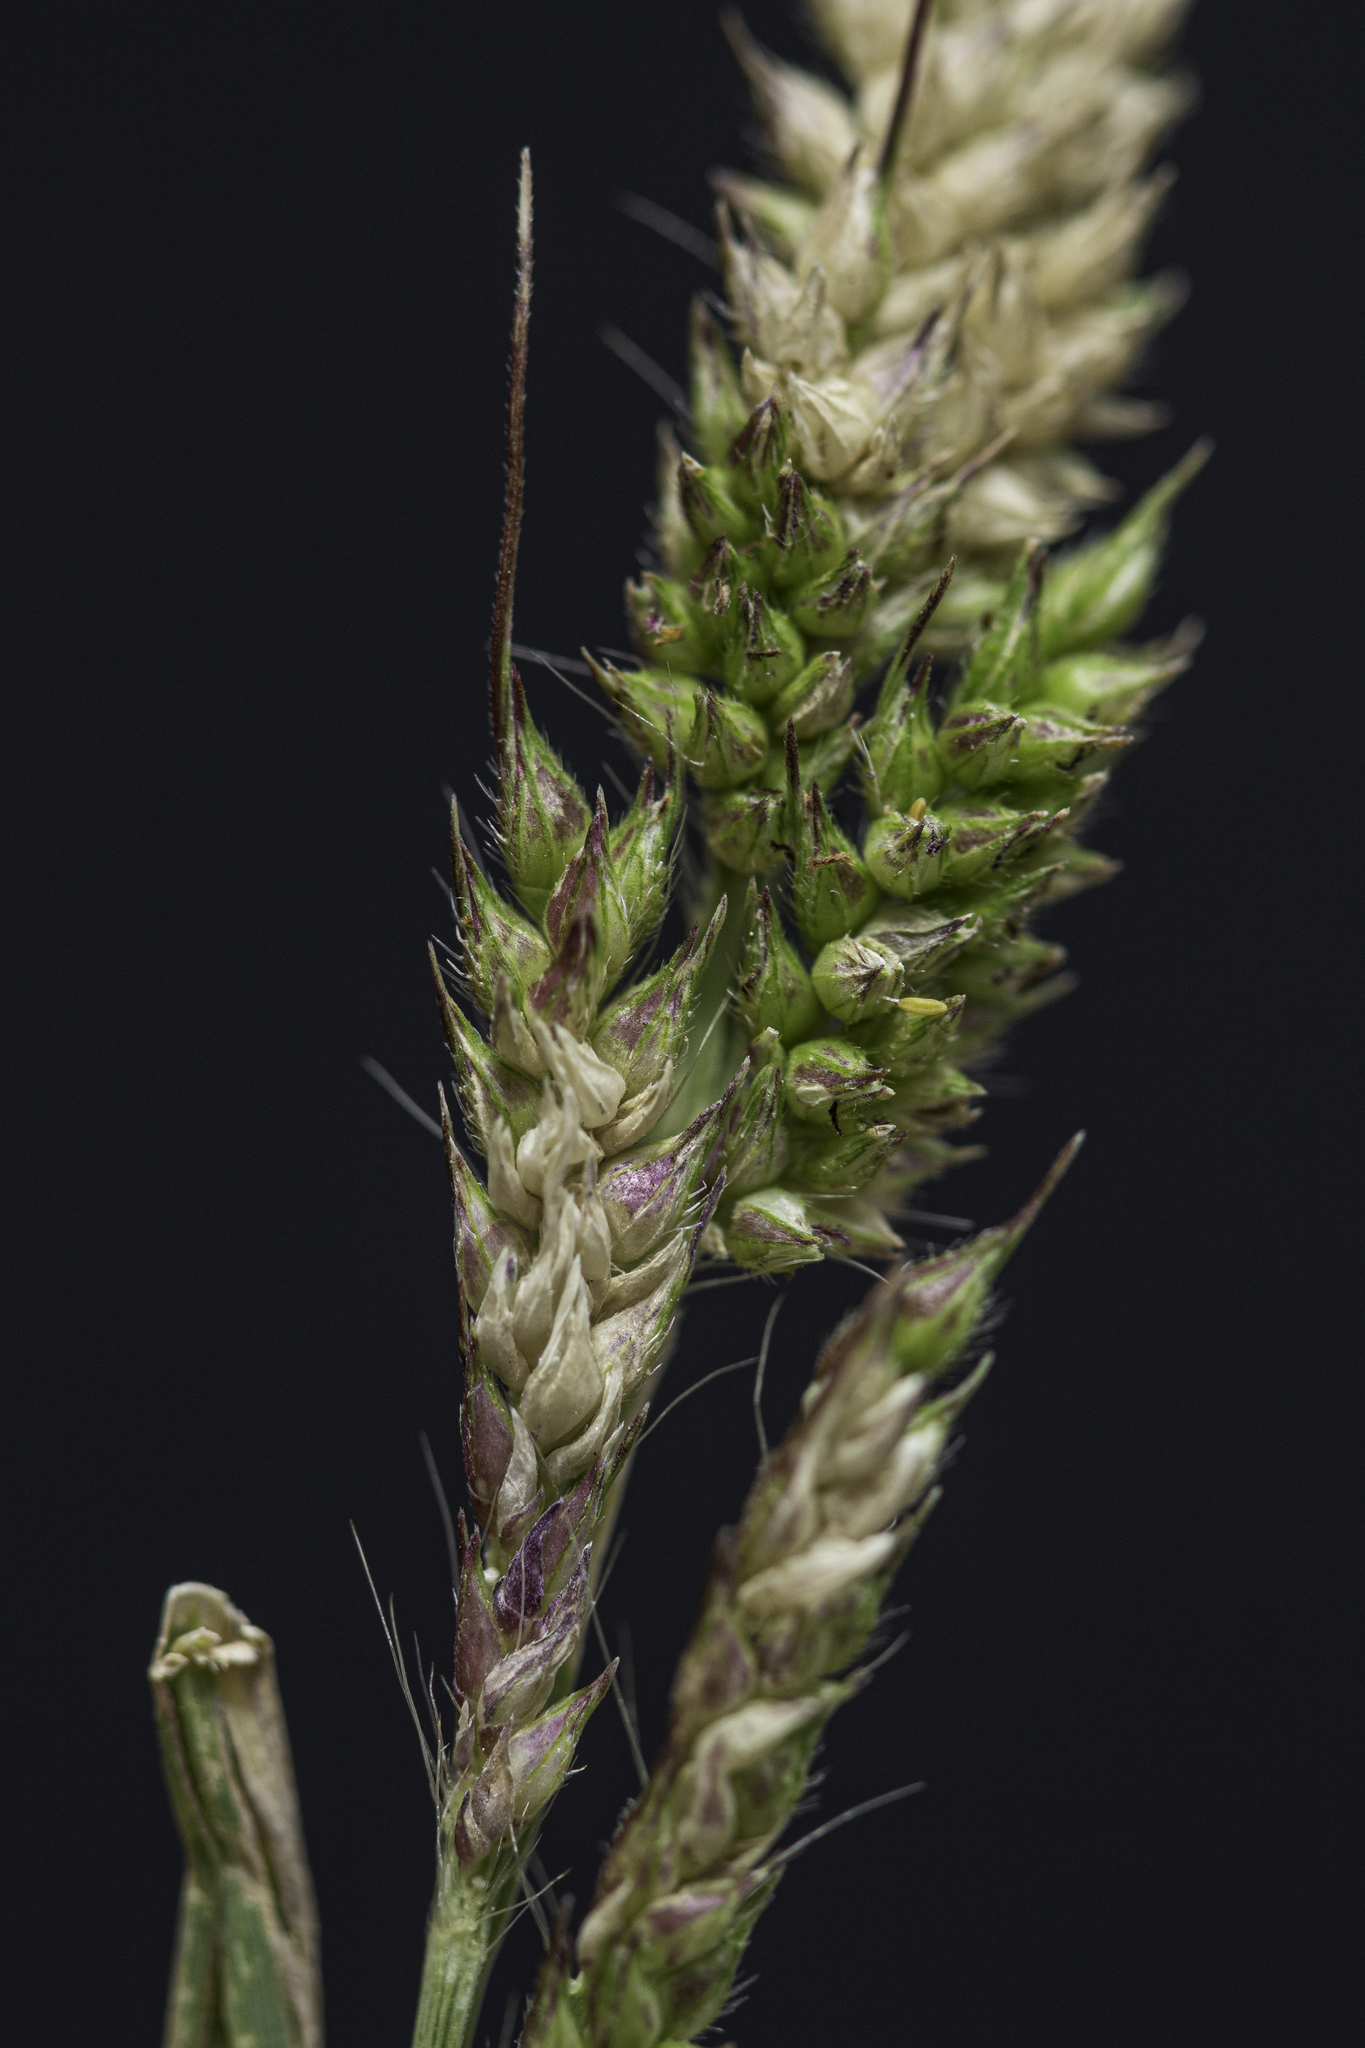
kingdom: Plantae
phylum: Tracheophyta
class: Liliopsida
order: Poales
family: Poaceae
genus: Echinochloa
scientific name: Echinochloa muricata
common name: American barnyard grass
